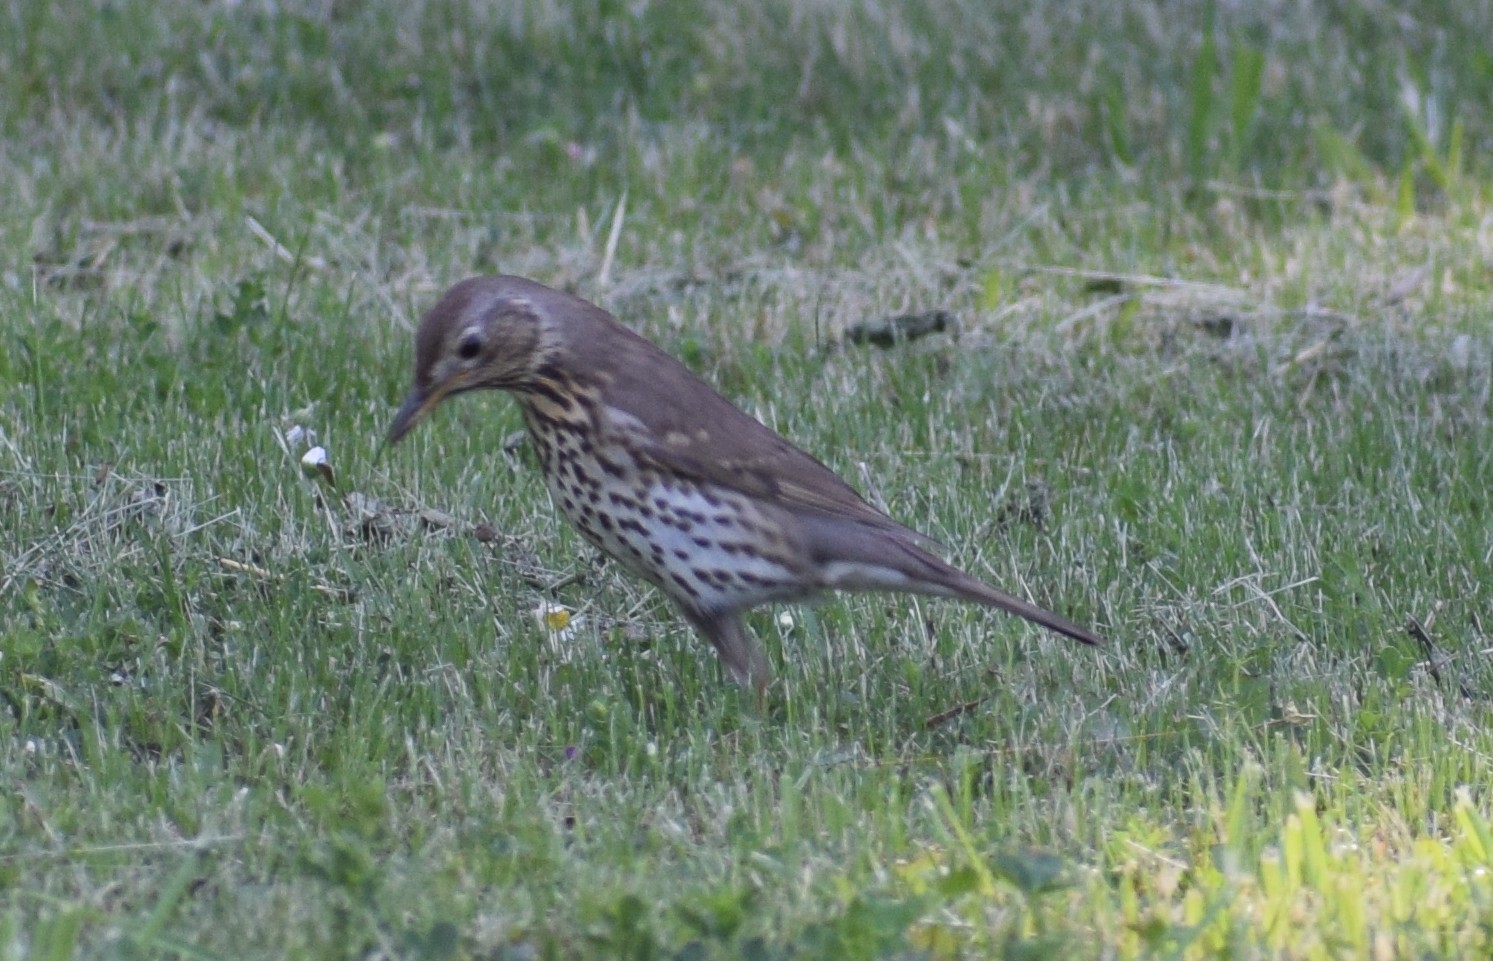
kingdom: Animalia
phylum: Chordata
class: Aves
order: Passeriformes
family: Turdidae
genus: Turdus
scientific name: Turdus philomelos
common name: Song thrush
